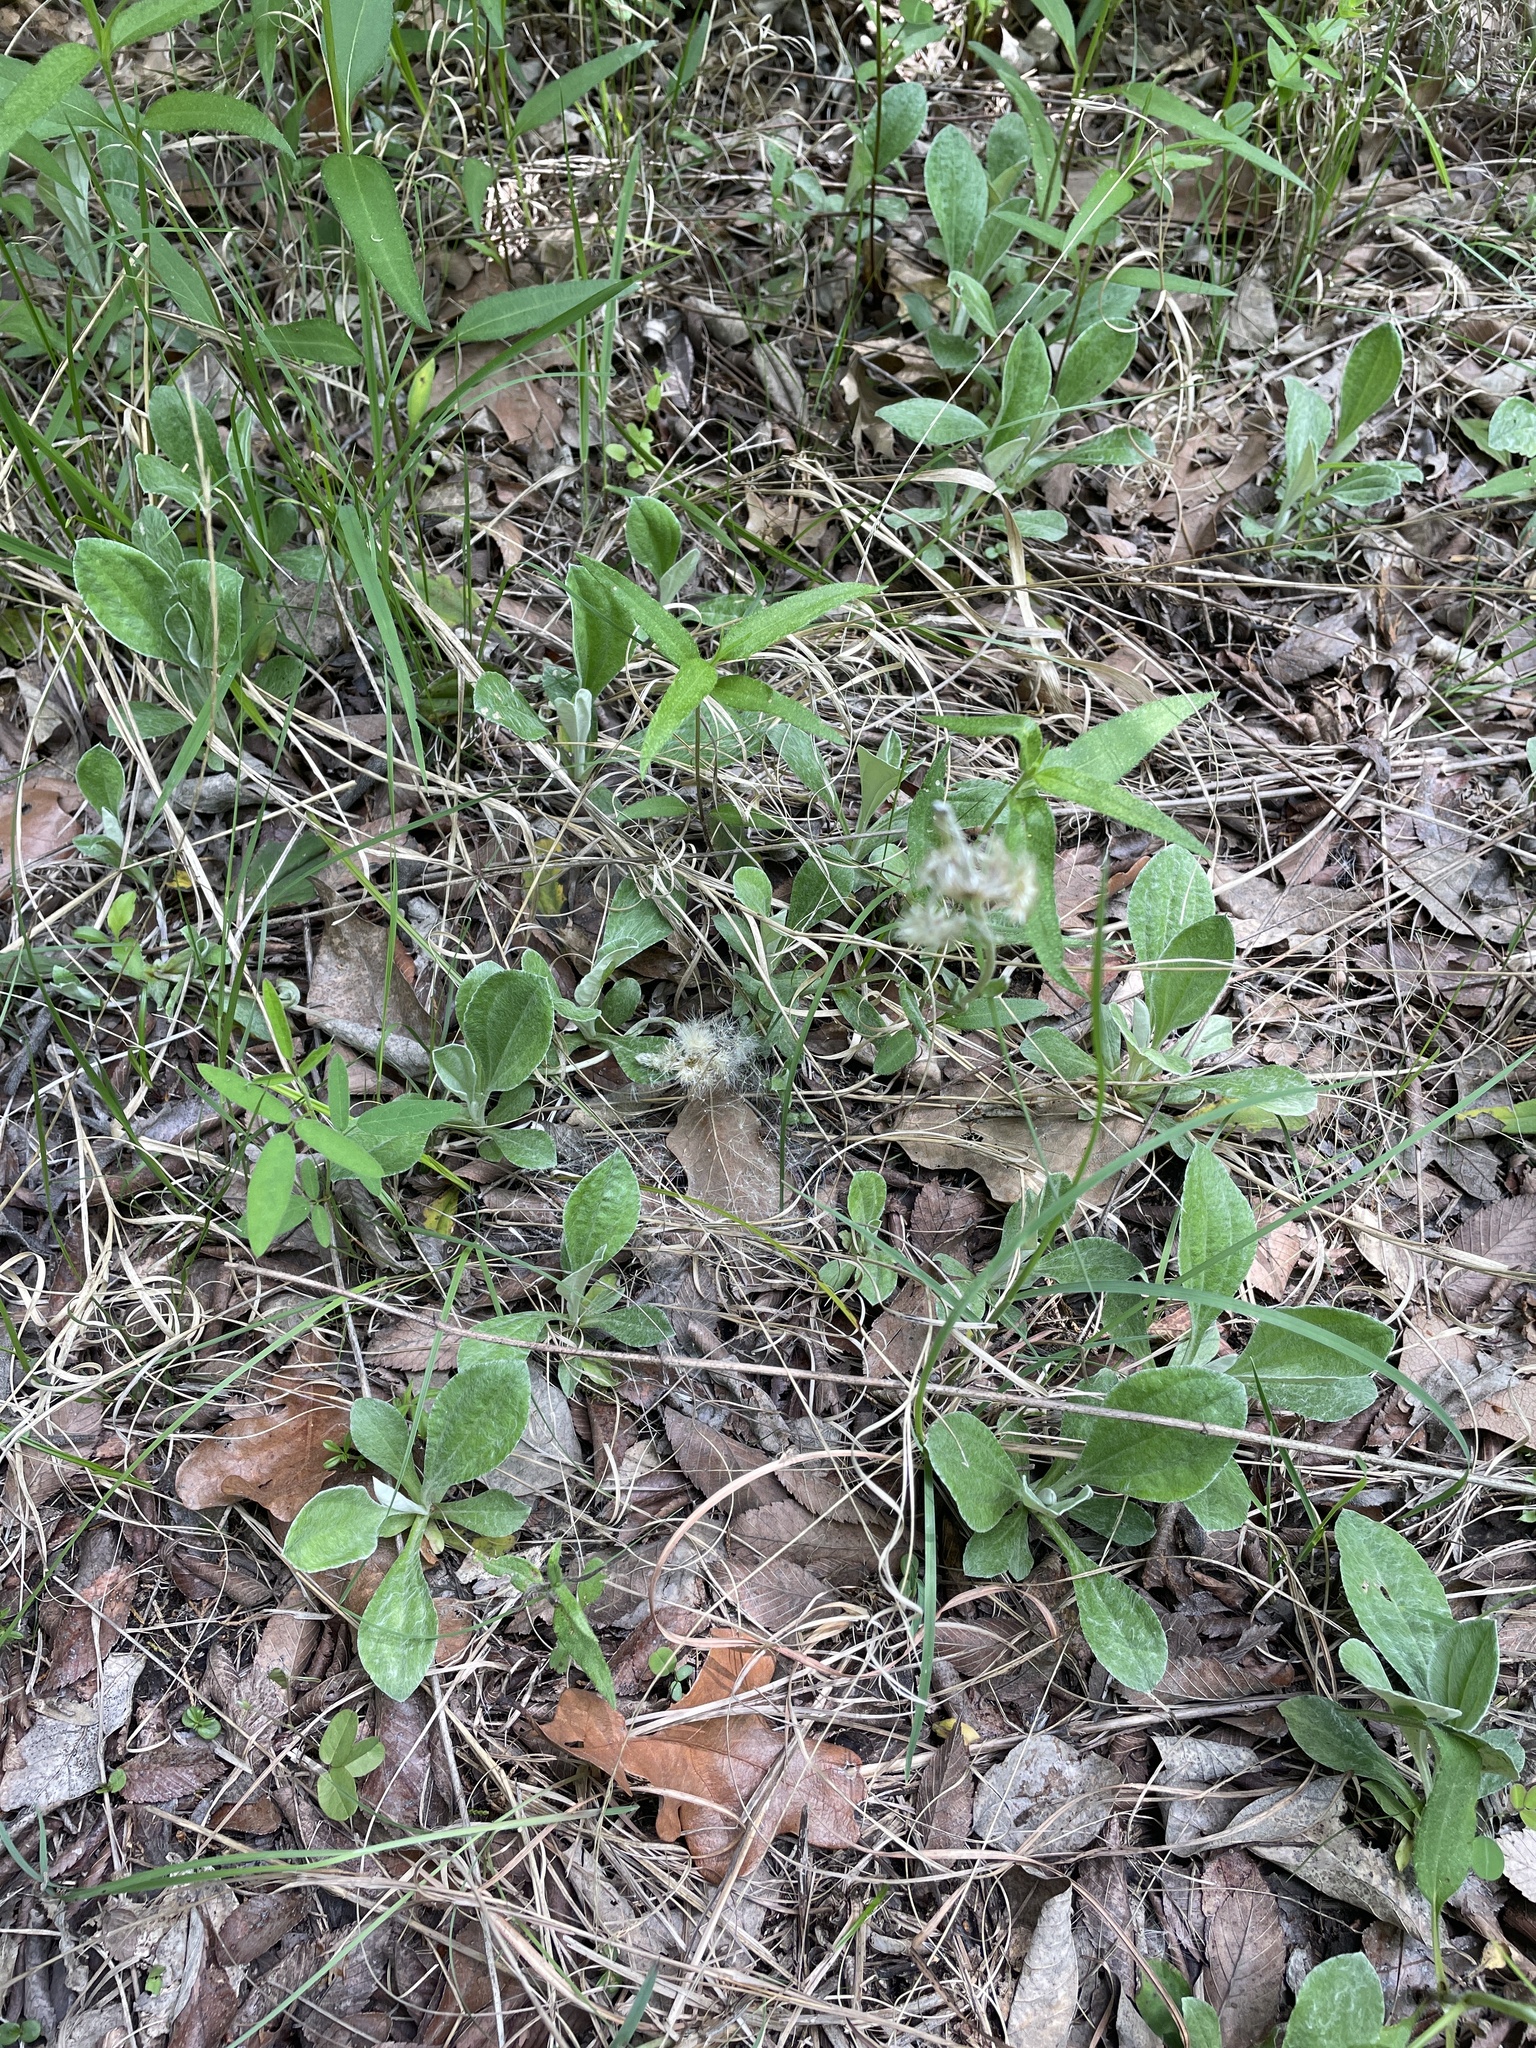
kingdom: Plantae
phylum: Tracheophyta
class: Magnoliopsida
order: Asterales
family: Asteraceae
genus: Antennaria
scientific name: Antennaria parlinii
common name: Parlin's pussytoes
